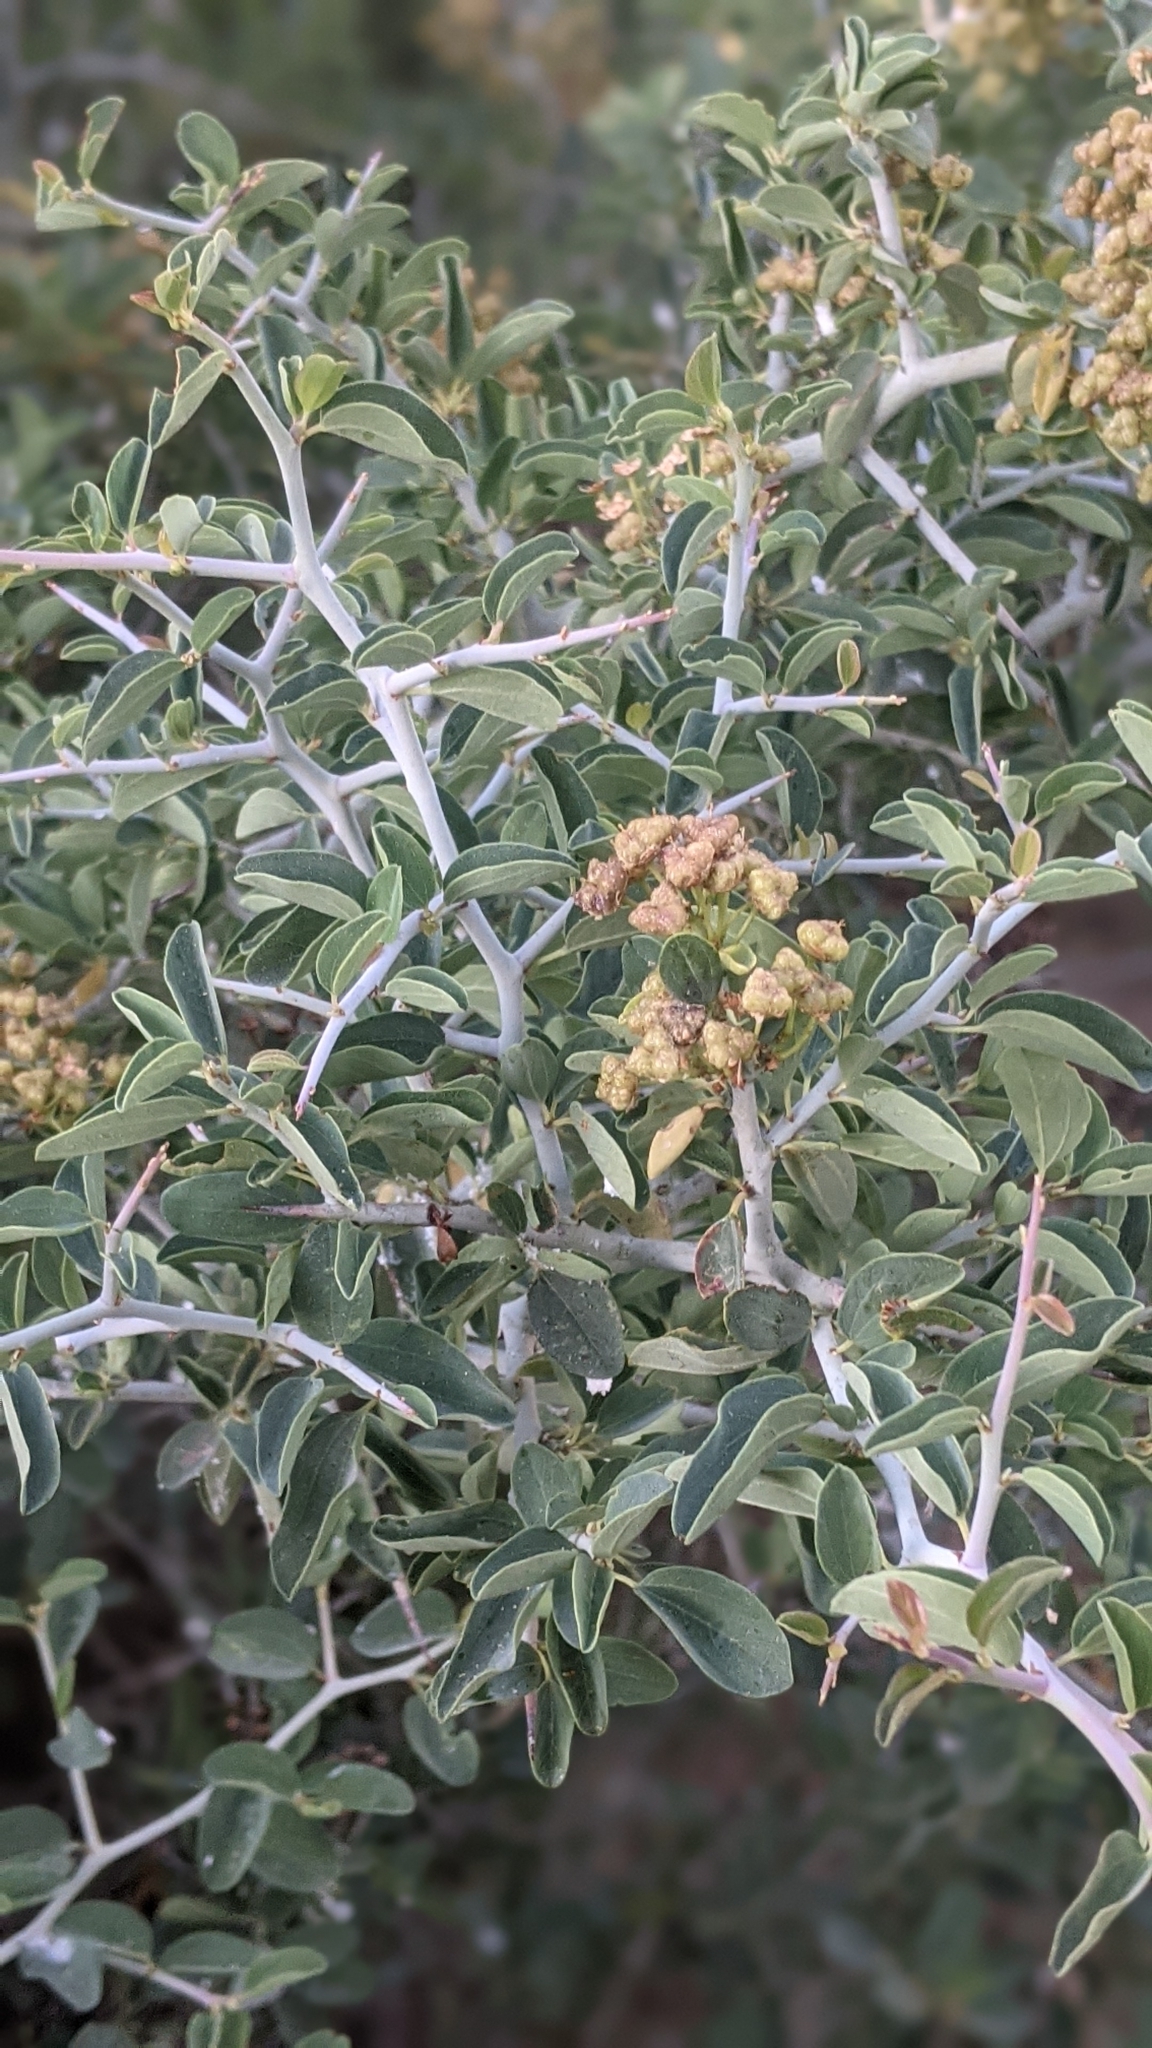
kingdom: Plantae
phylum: Tracheophyta
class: Magnoliopsida
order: Rosales
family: Rhamnaceae
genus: Ceanothus
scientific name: Ceanothus cordulatus
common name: Mountain whitethorn
